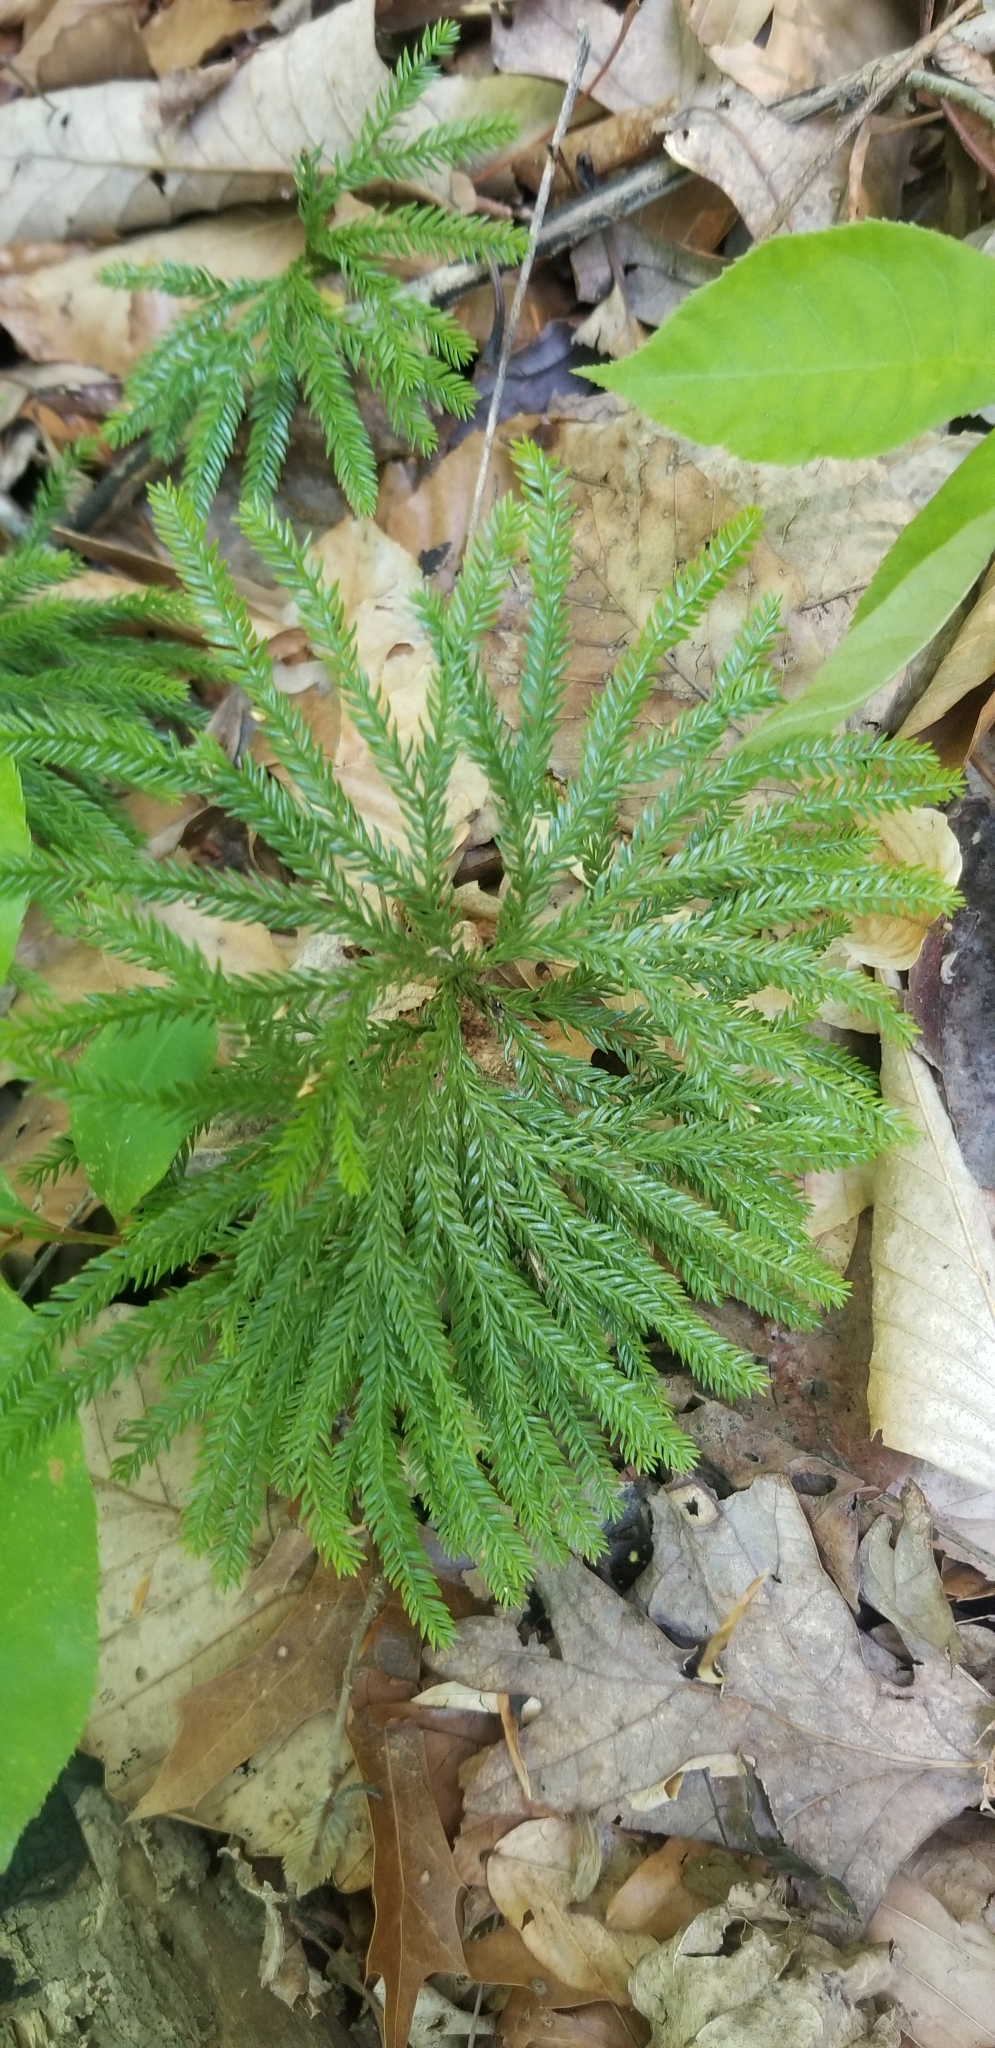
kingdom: Plantae
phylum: Tracheophyta
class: Lycopodiopsida
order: Lycopodiales
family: Lycopodiaceae
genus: Dendrolycopodium
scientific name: Dendrolycopodium obscurum
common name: Common ground-pine
